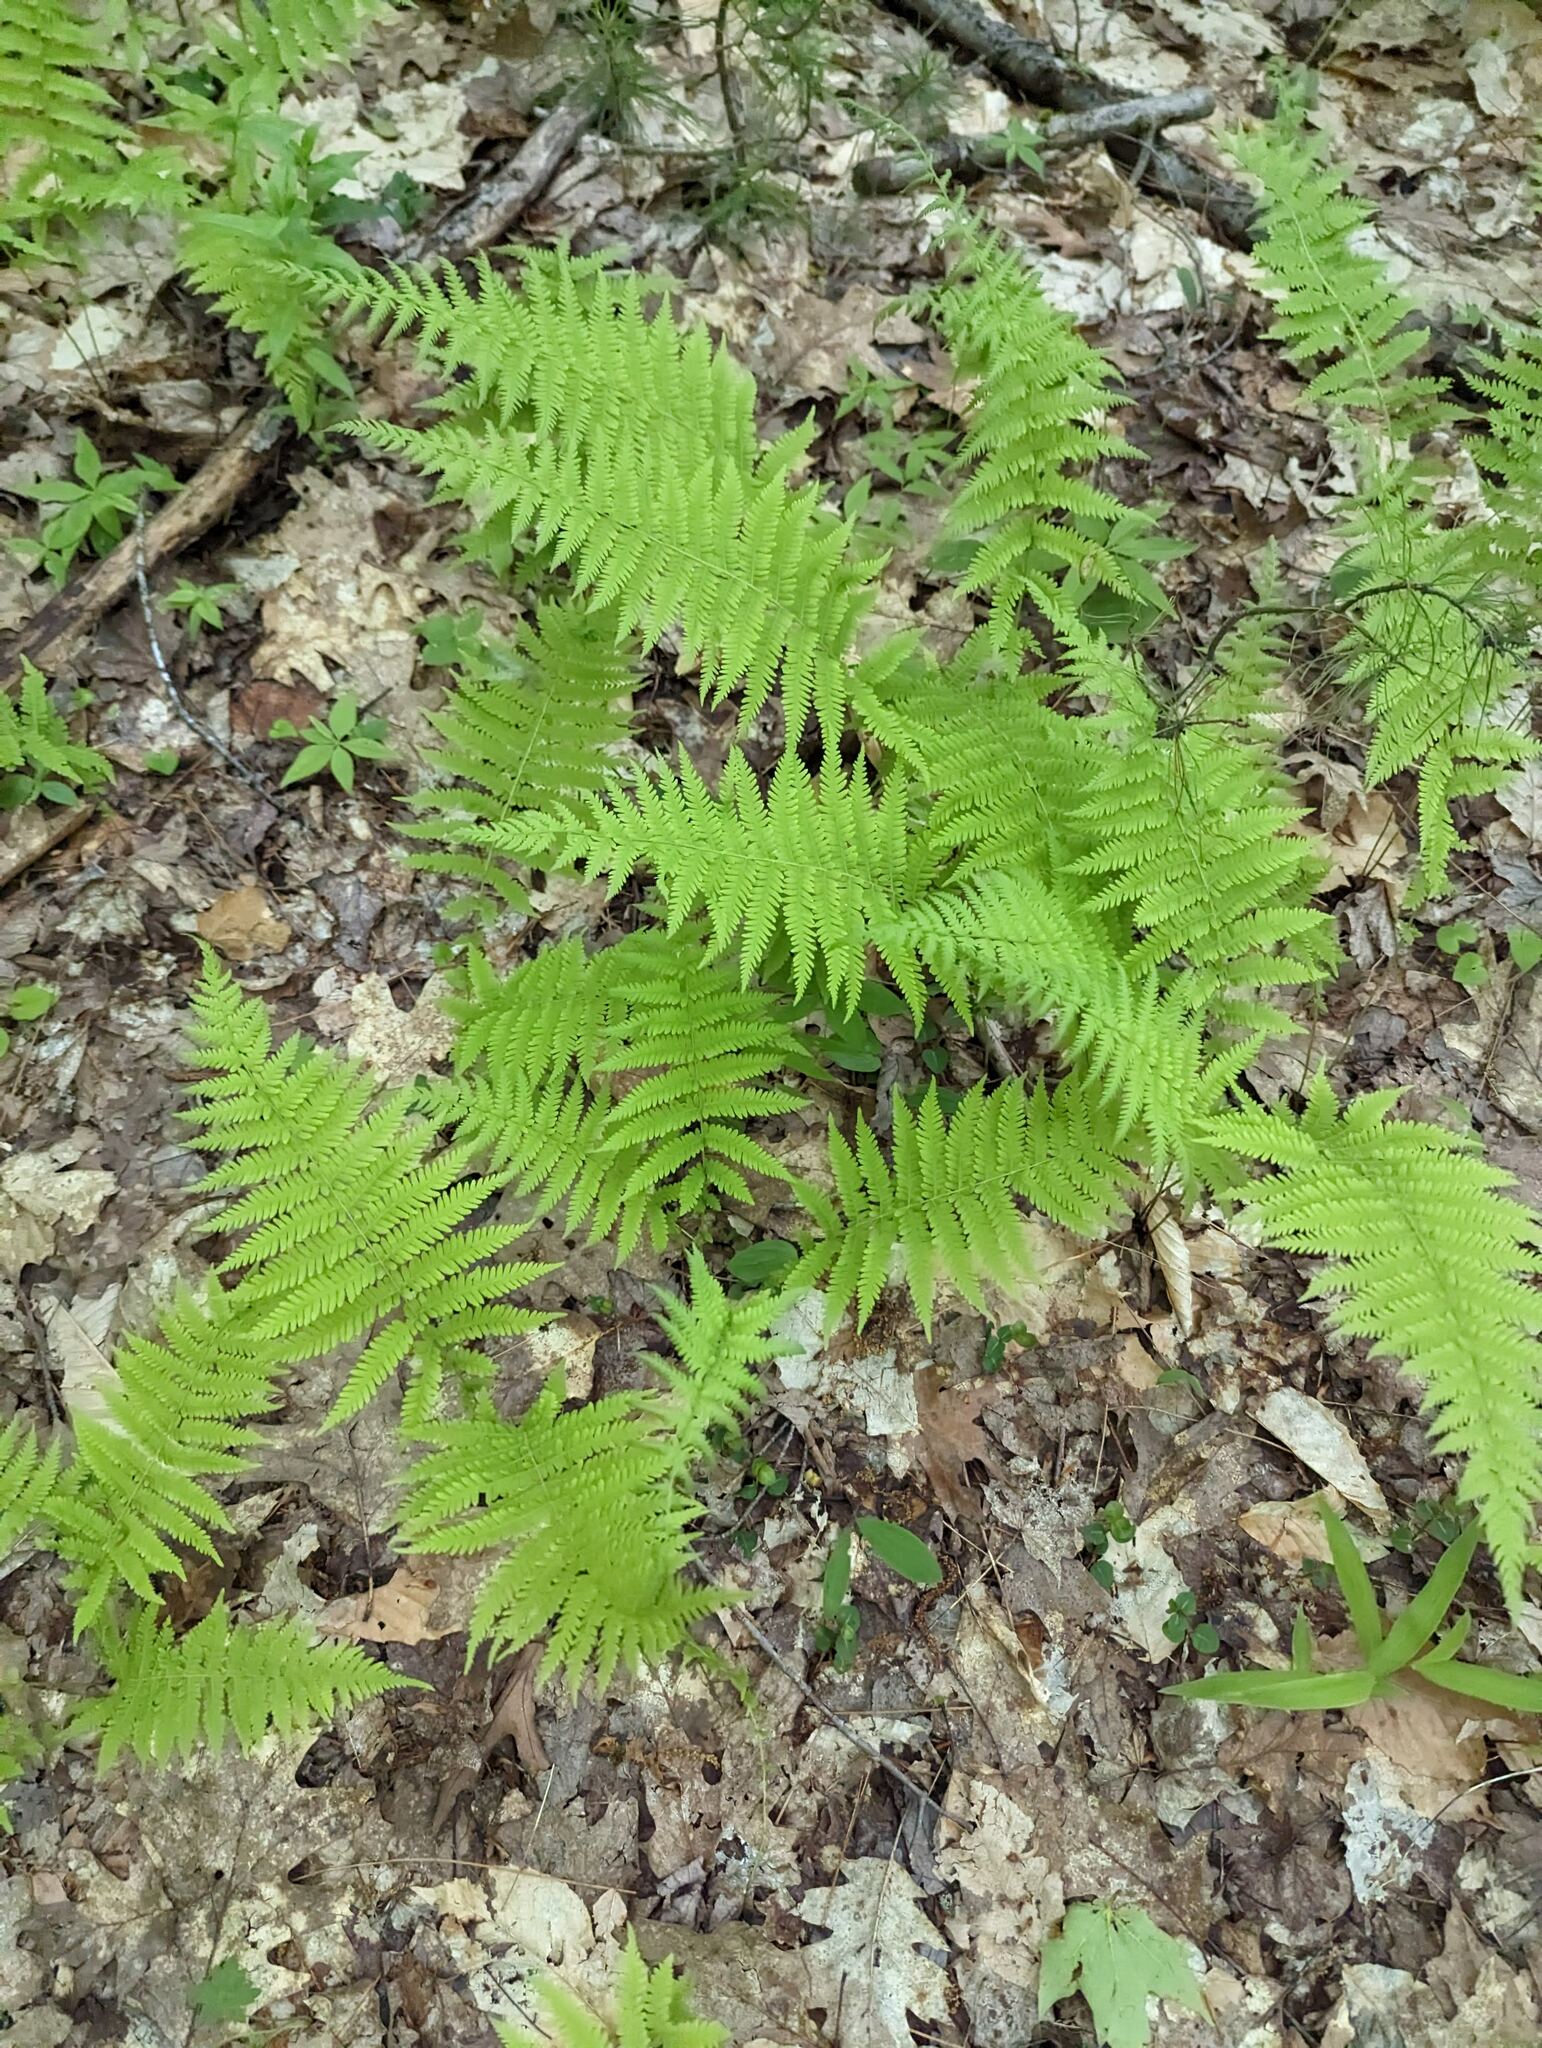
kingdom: Plantae
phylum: Tracheophyta
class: Polypodiopsida
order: Polypodiales
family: Thelypteridaceae
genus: Amauropelta
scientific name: Amauropelta noveboracensis
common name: New york fern
